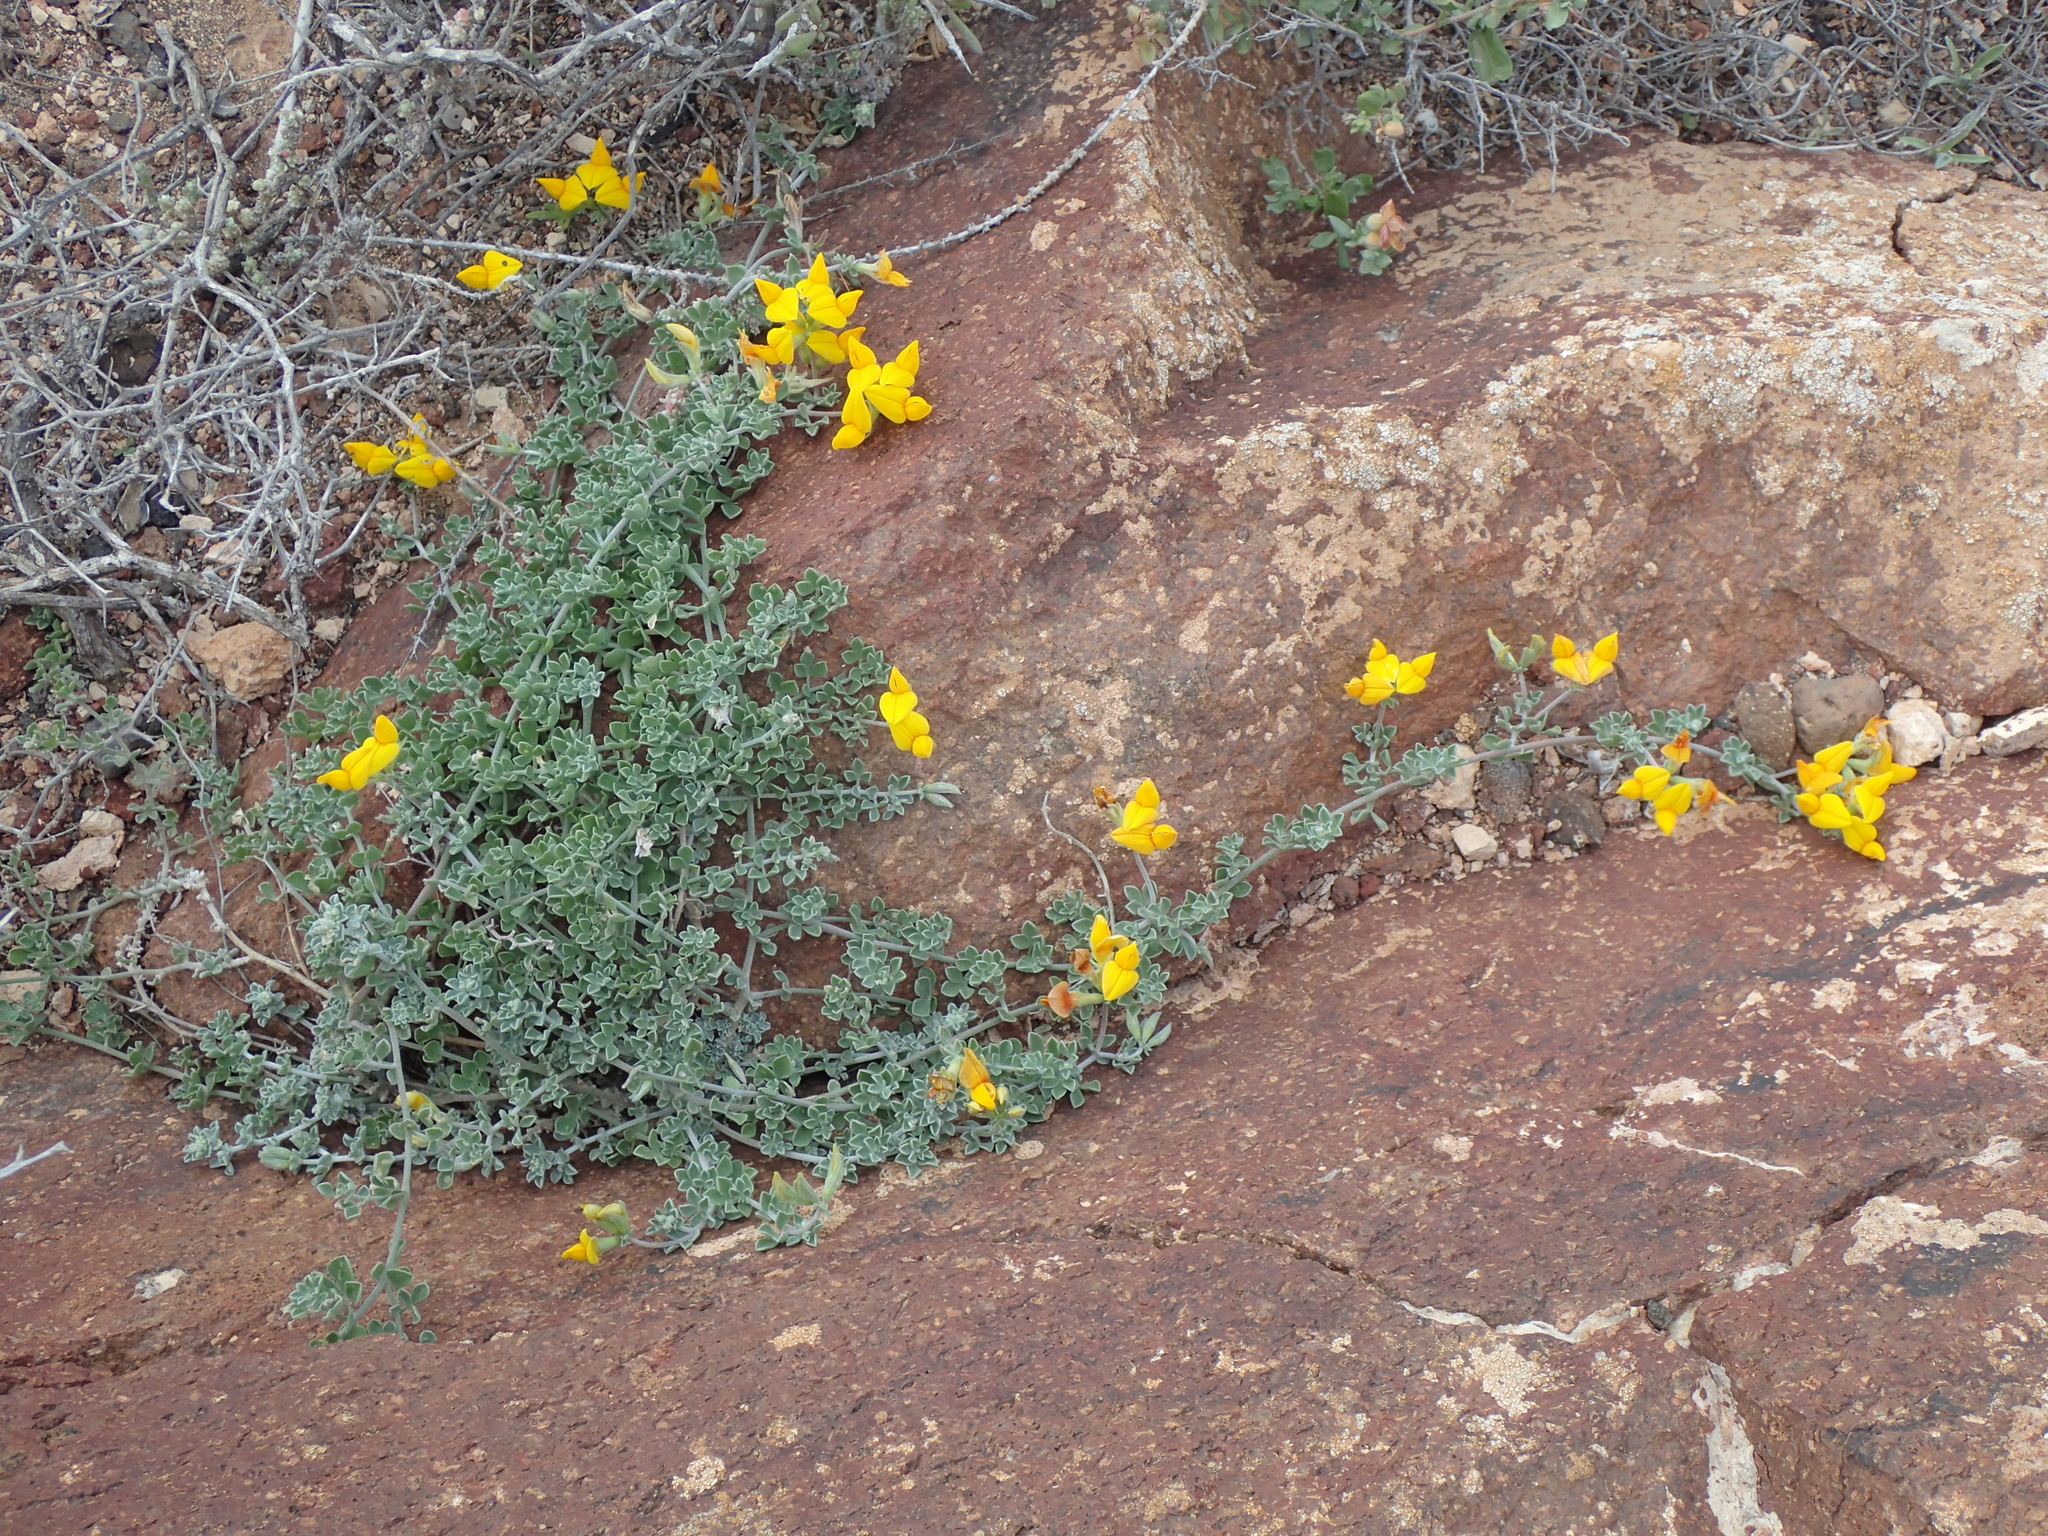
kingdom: Plantae
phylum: Tracheophyta
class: Magnoliopsida
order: Fabales
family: Fabaceae
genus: Lotus
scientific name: Lotus lancerottensis
